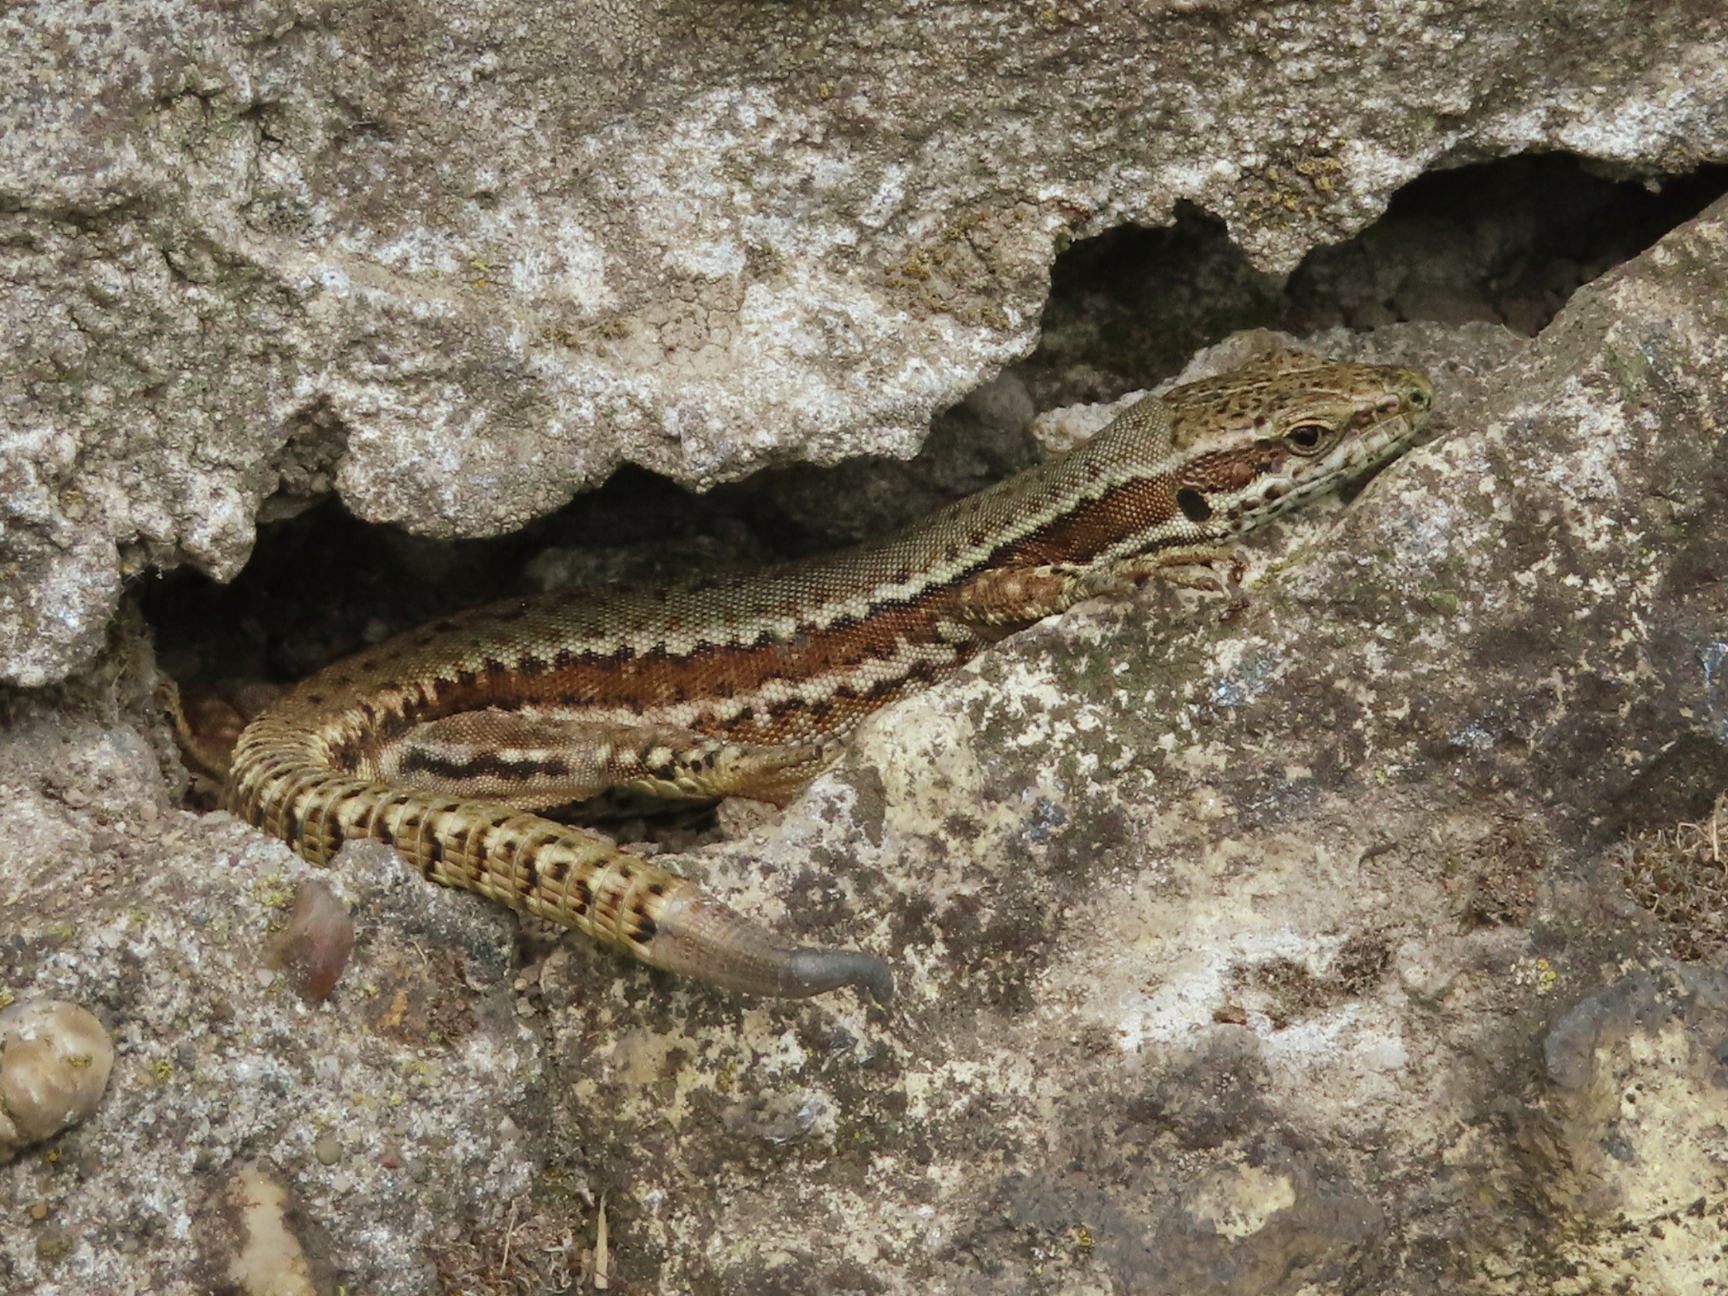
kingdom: Animalia
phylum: Chordata
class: Squamata
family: Lacertidae
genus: Podarcis
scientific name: Podarcis muralis
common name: Common wall lizard
